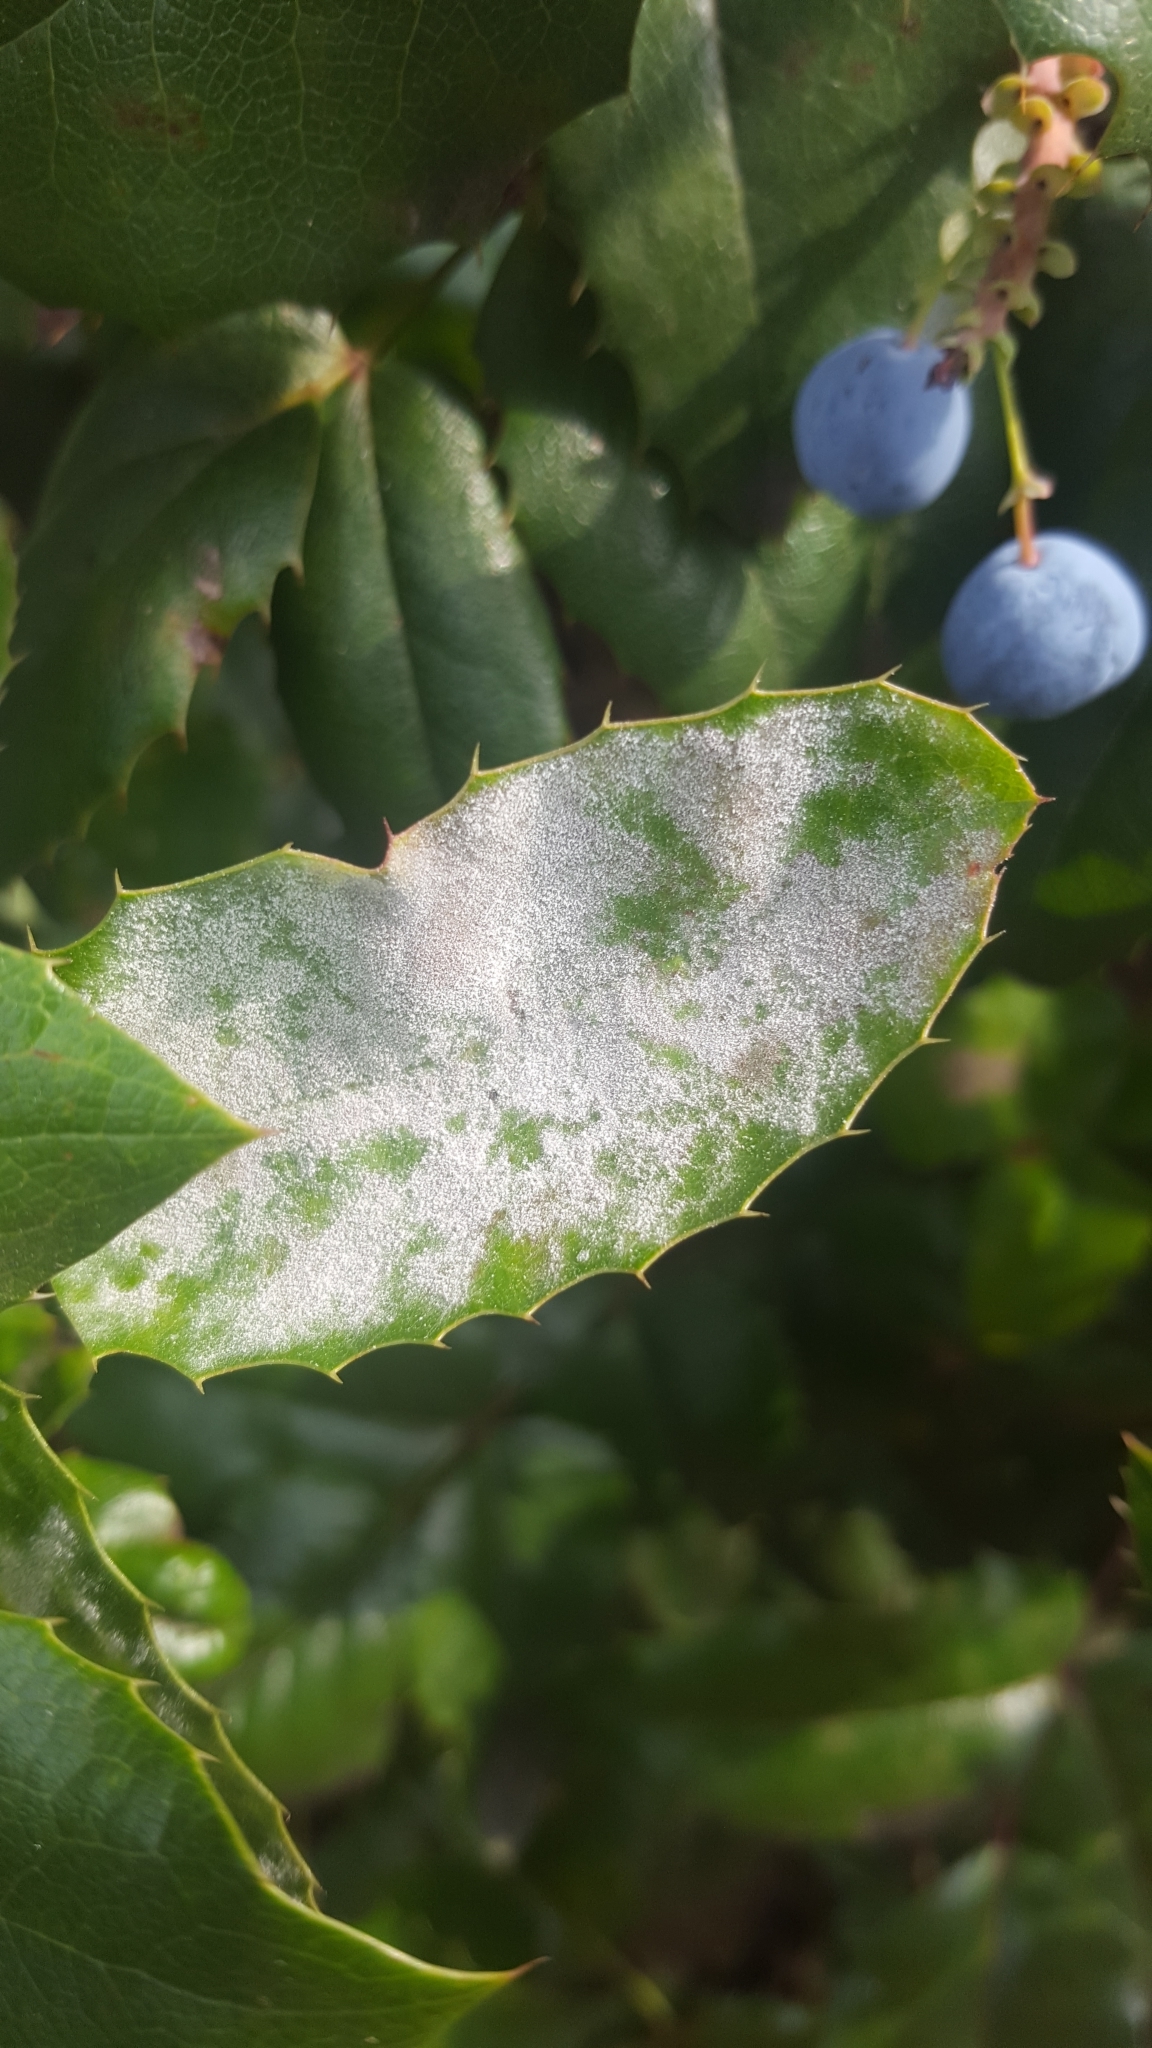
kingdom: Fungi
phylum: Ascomycota
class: Leotiomycetes
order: Helotiales
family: Erysiphaceae
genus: Erysiphe
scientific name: Erysiphe berberidis
